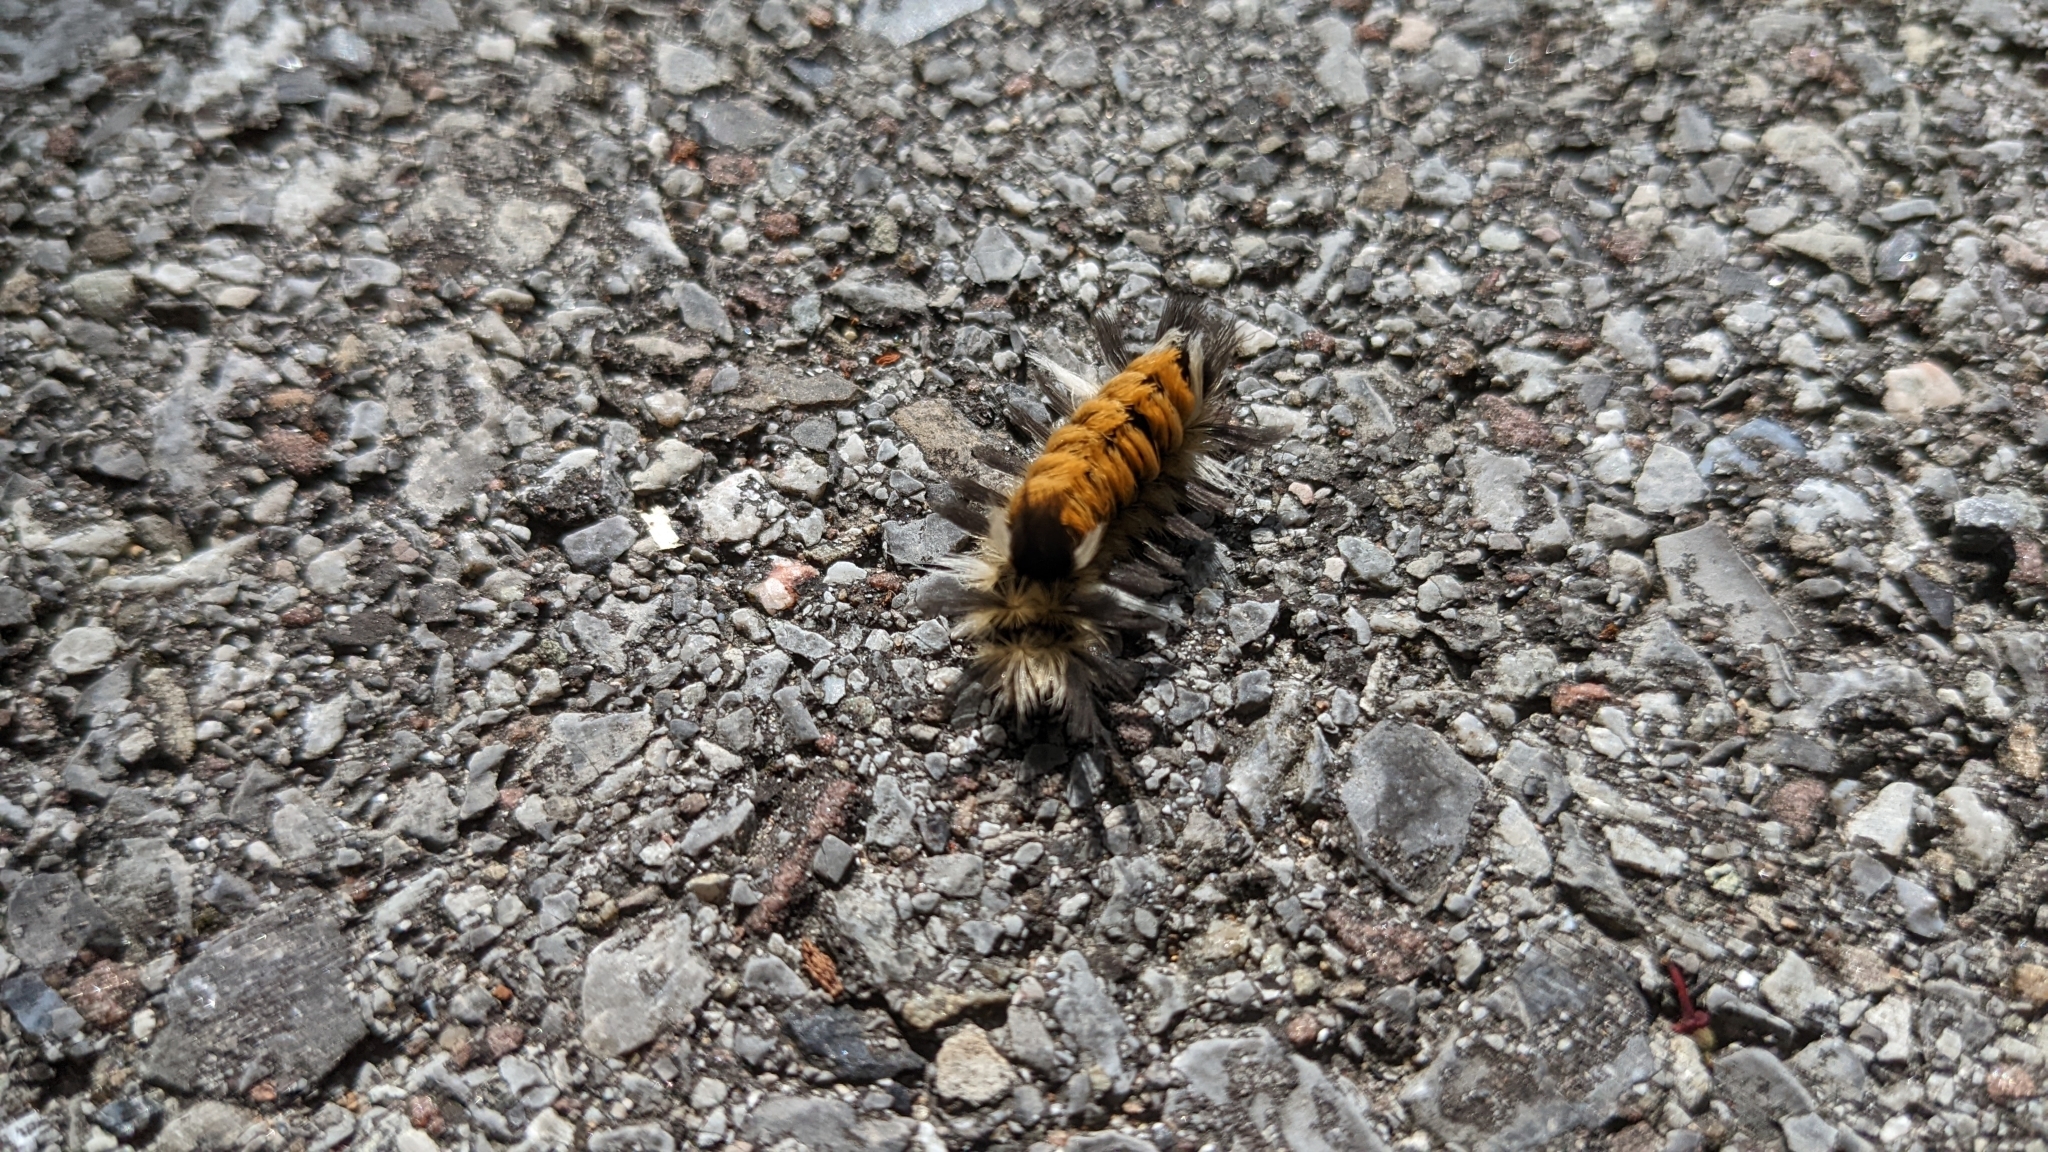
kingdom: Animalia
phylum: Arthropoda
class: Insecta
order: Lepidoptera
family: Erebidae
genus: Euchaetes
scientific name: Euchaetes egle
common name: Milkweed tussock moth
